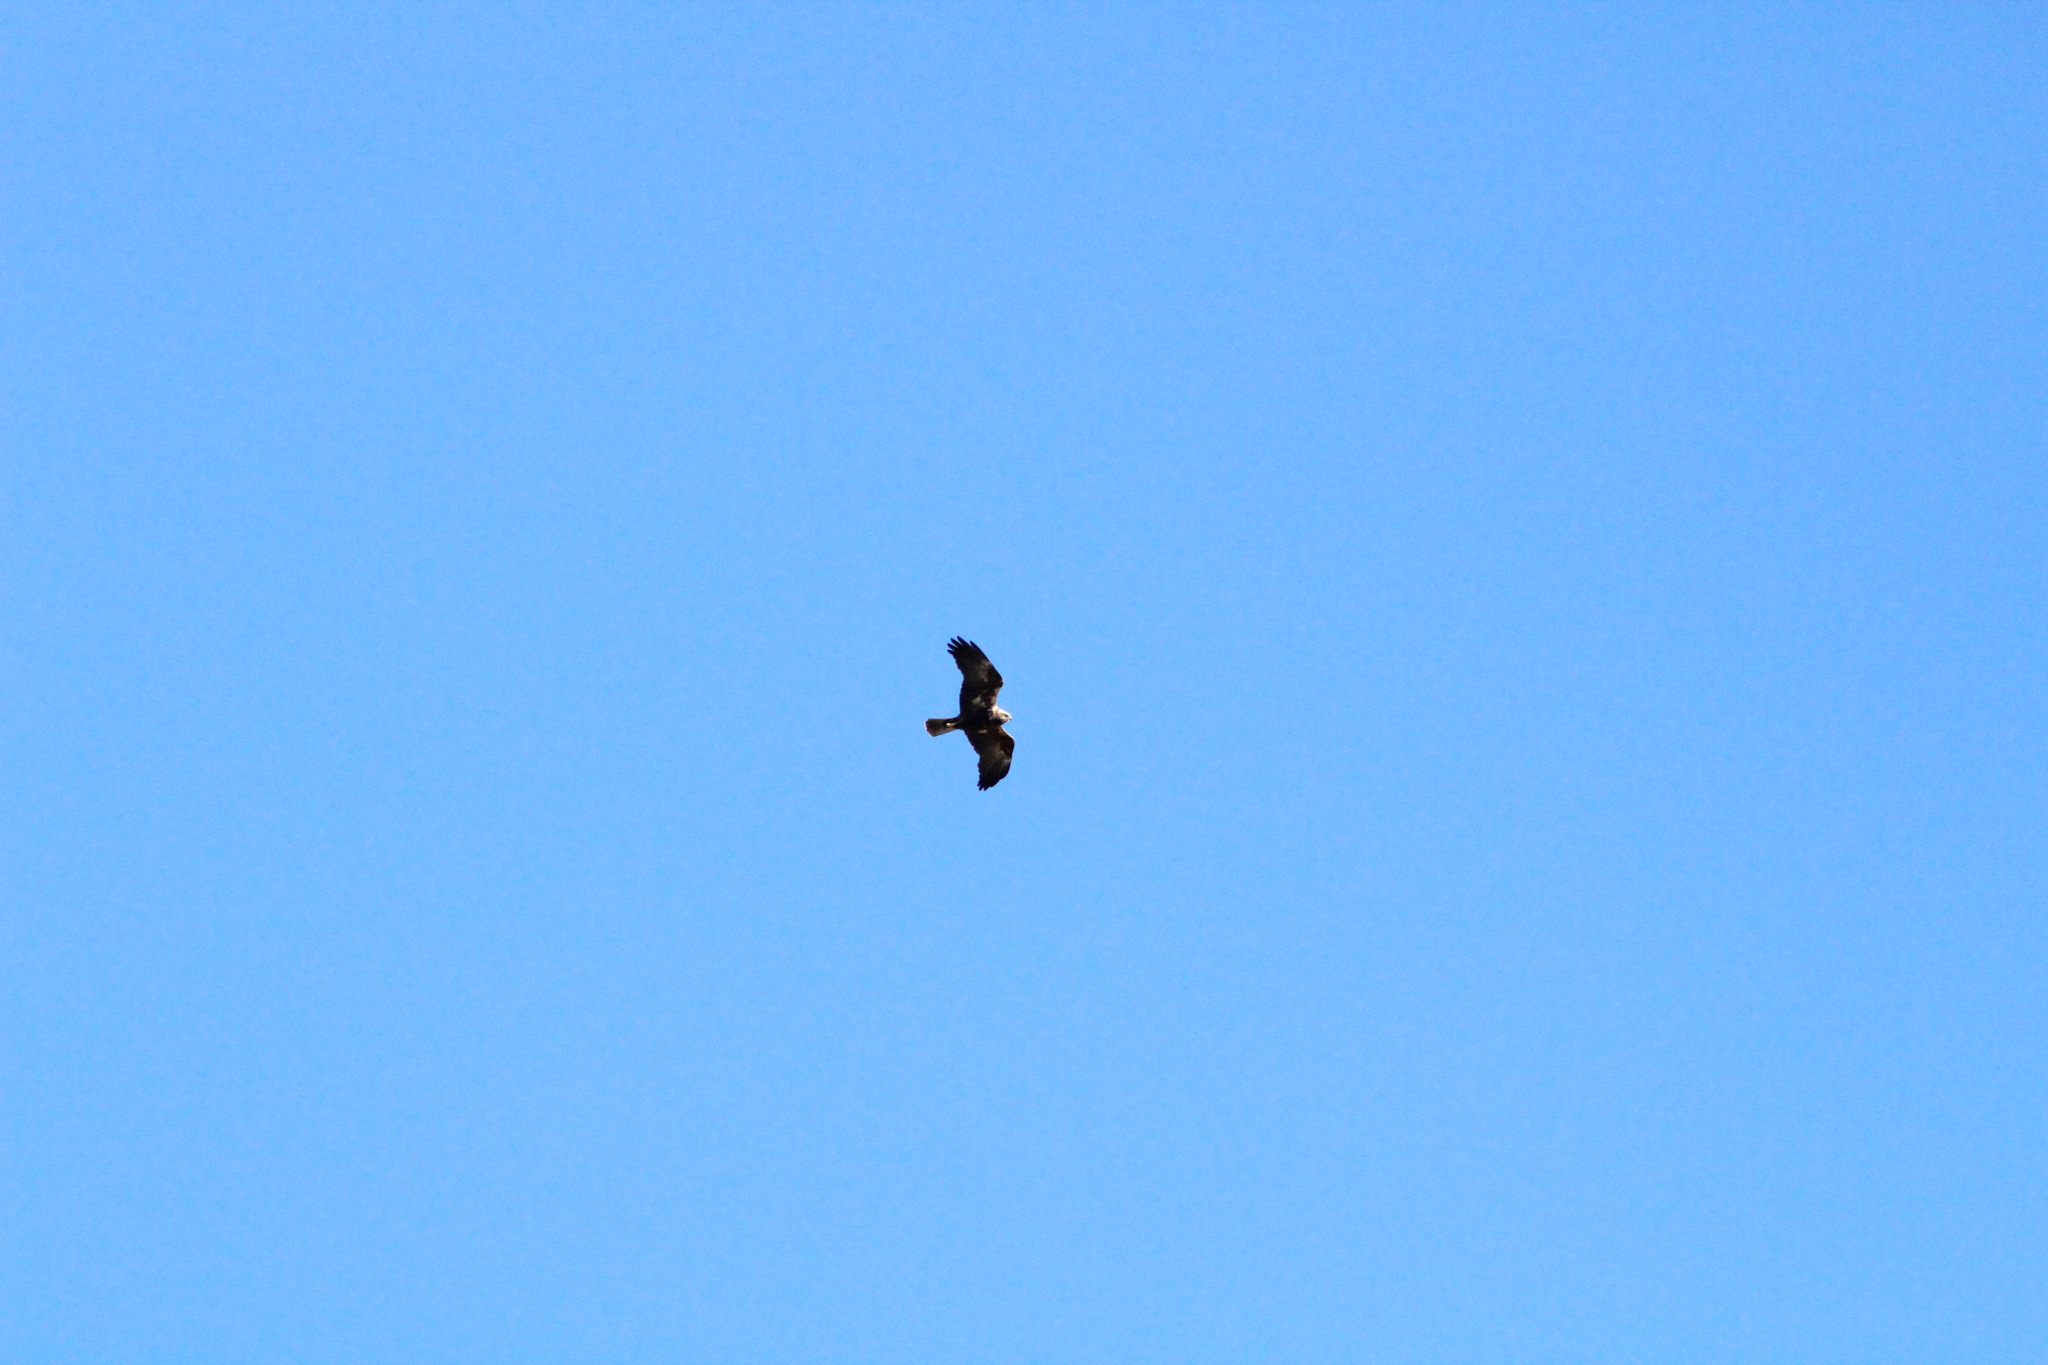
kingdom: Animalia
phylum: Chordata
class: Aves
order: Accipitriformes
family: Accipitridae
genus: Circus
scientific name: Circus aeruginosus
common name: Western marsh harrier
